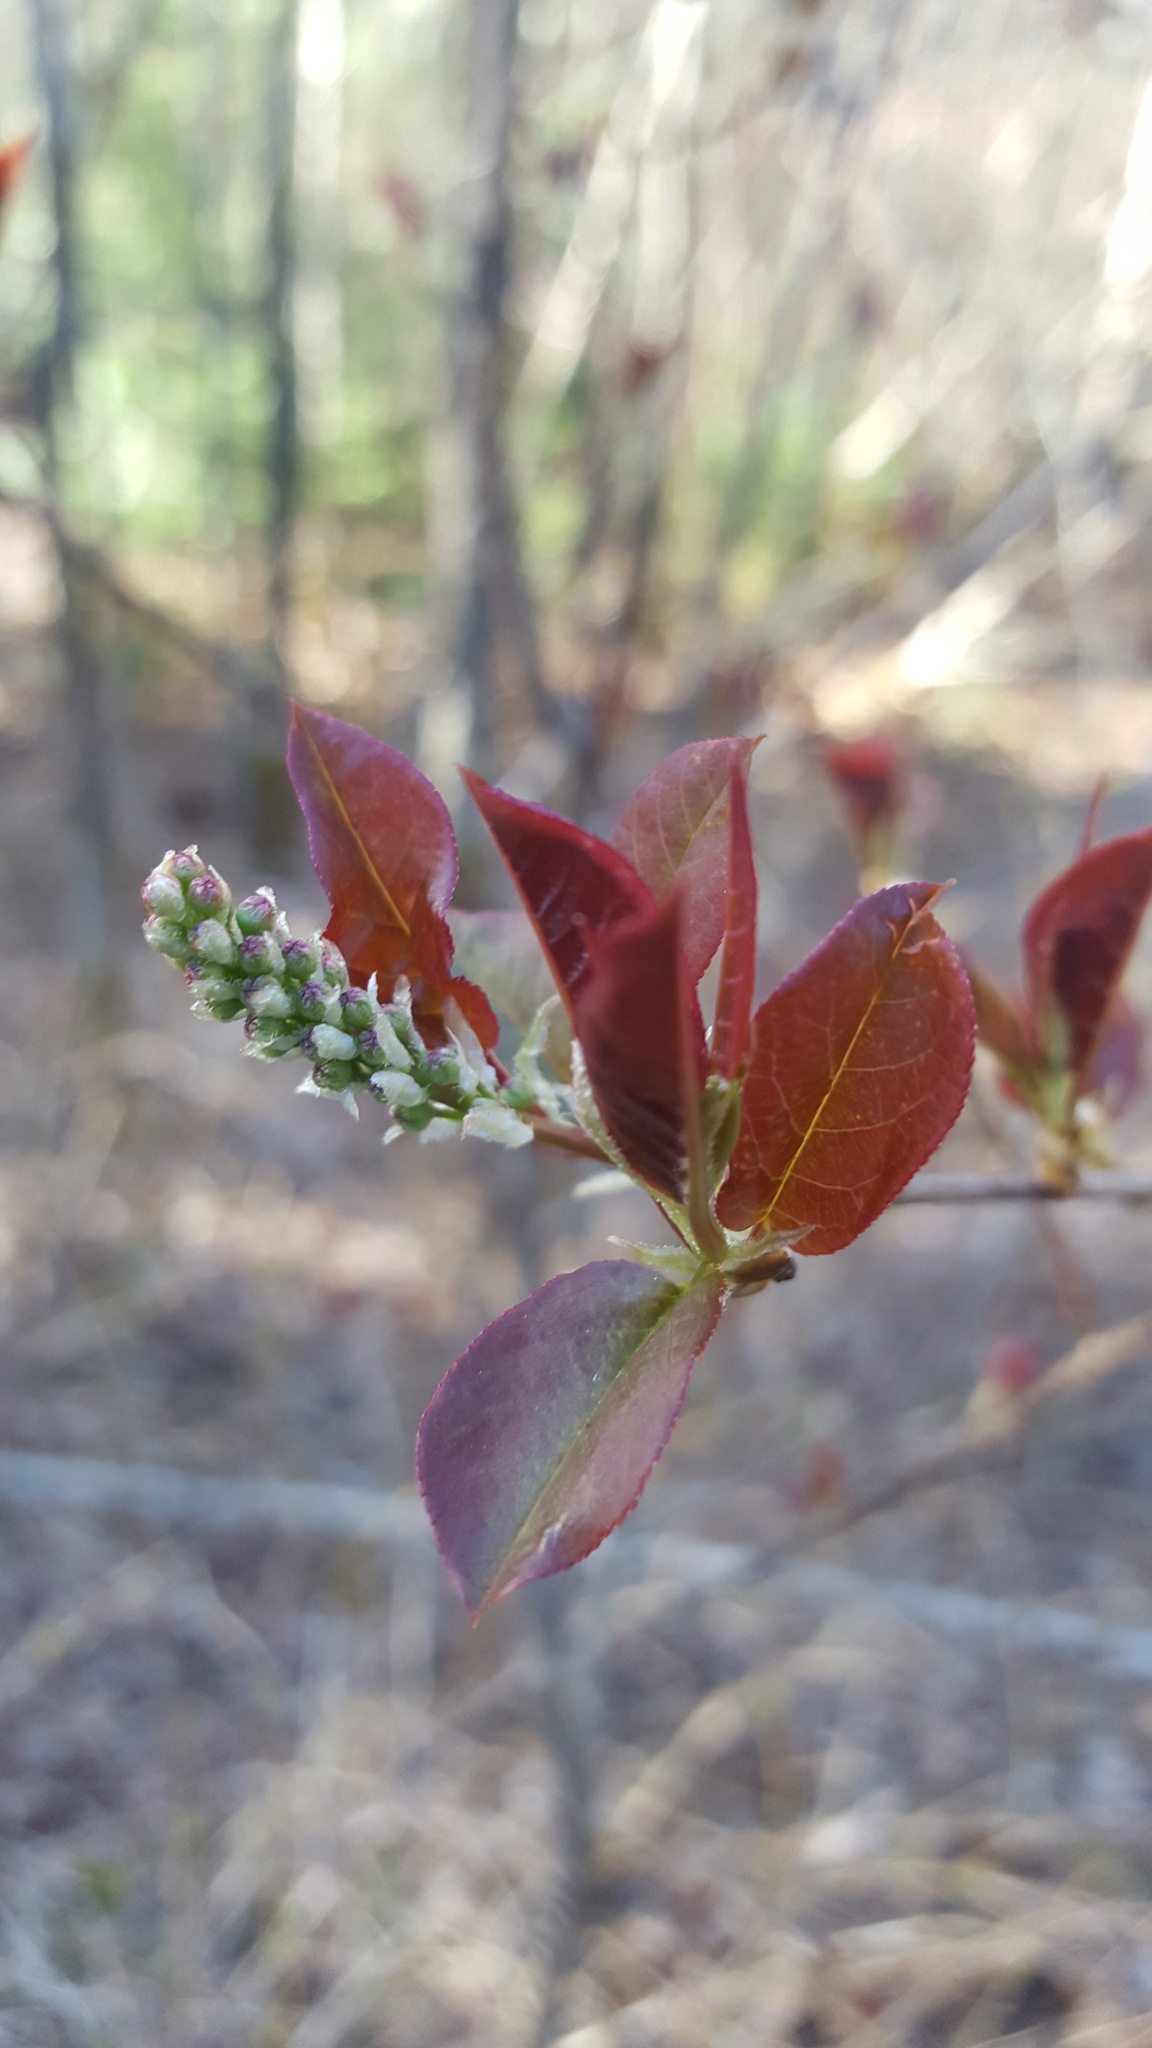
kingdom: Plantae
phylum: Tracheophyta
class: Magnoliopsida
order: Rosales
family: Rosaceae
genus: Prunus
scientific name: Prunus virginiana
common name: Chokecherry
